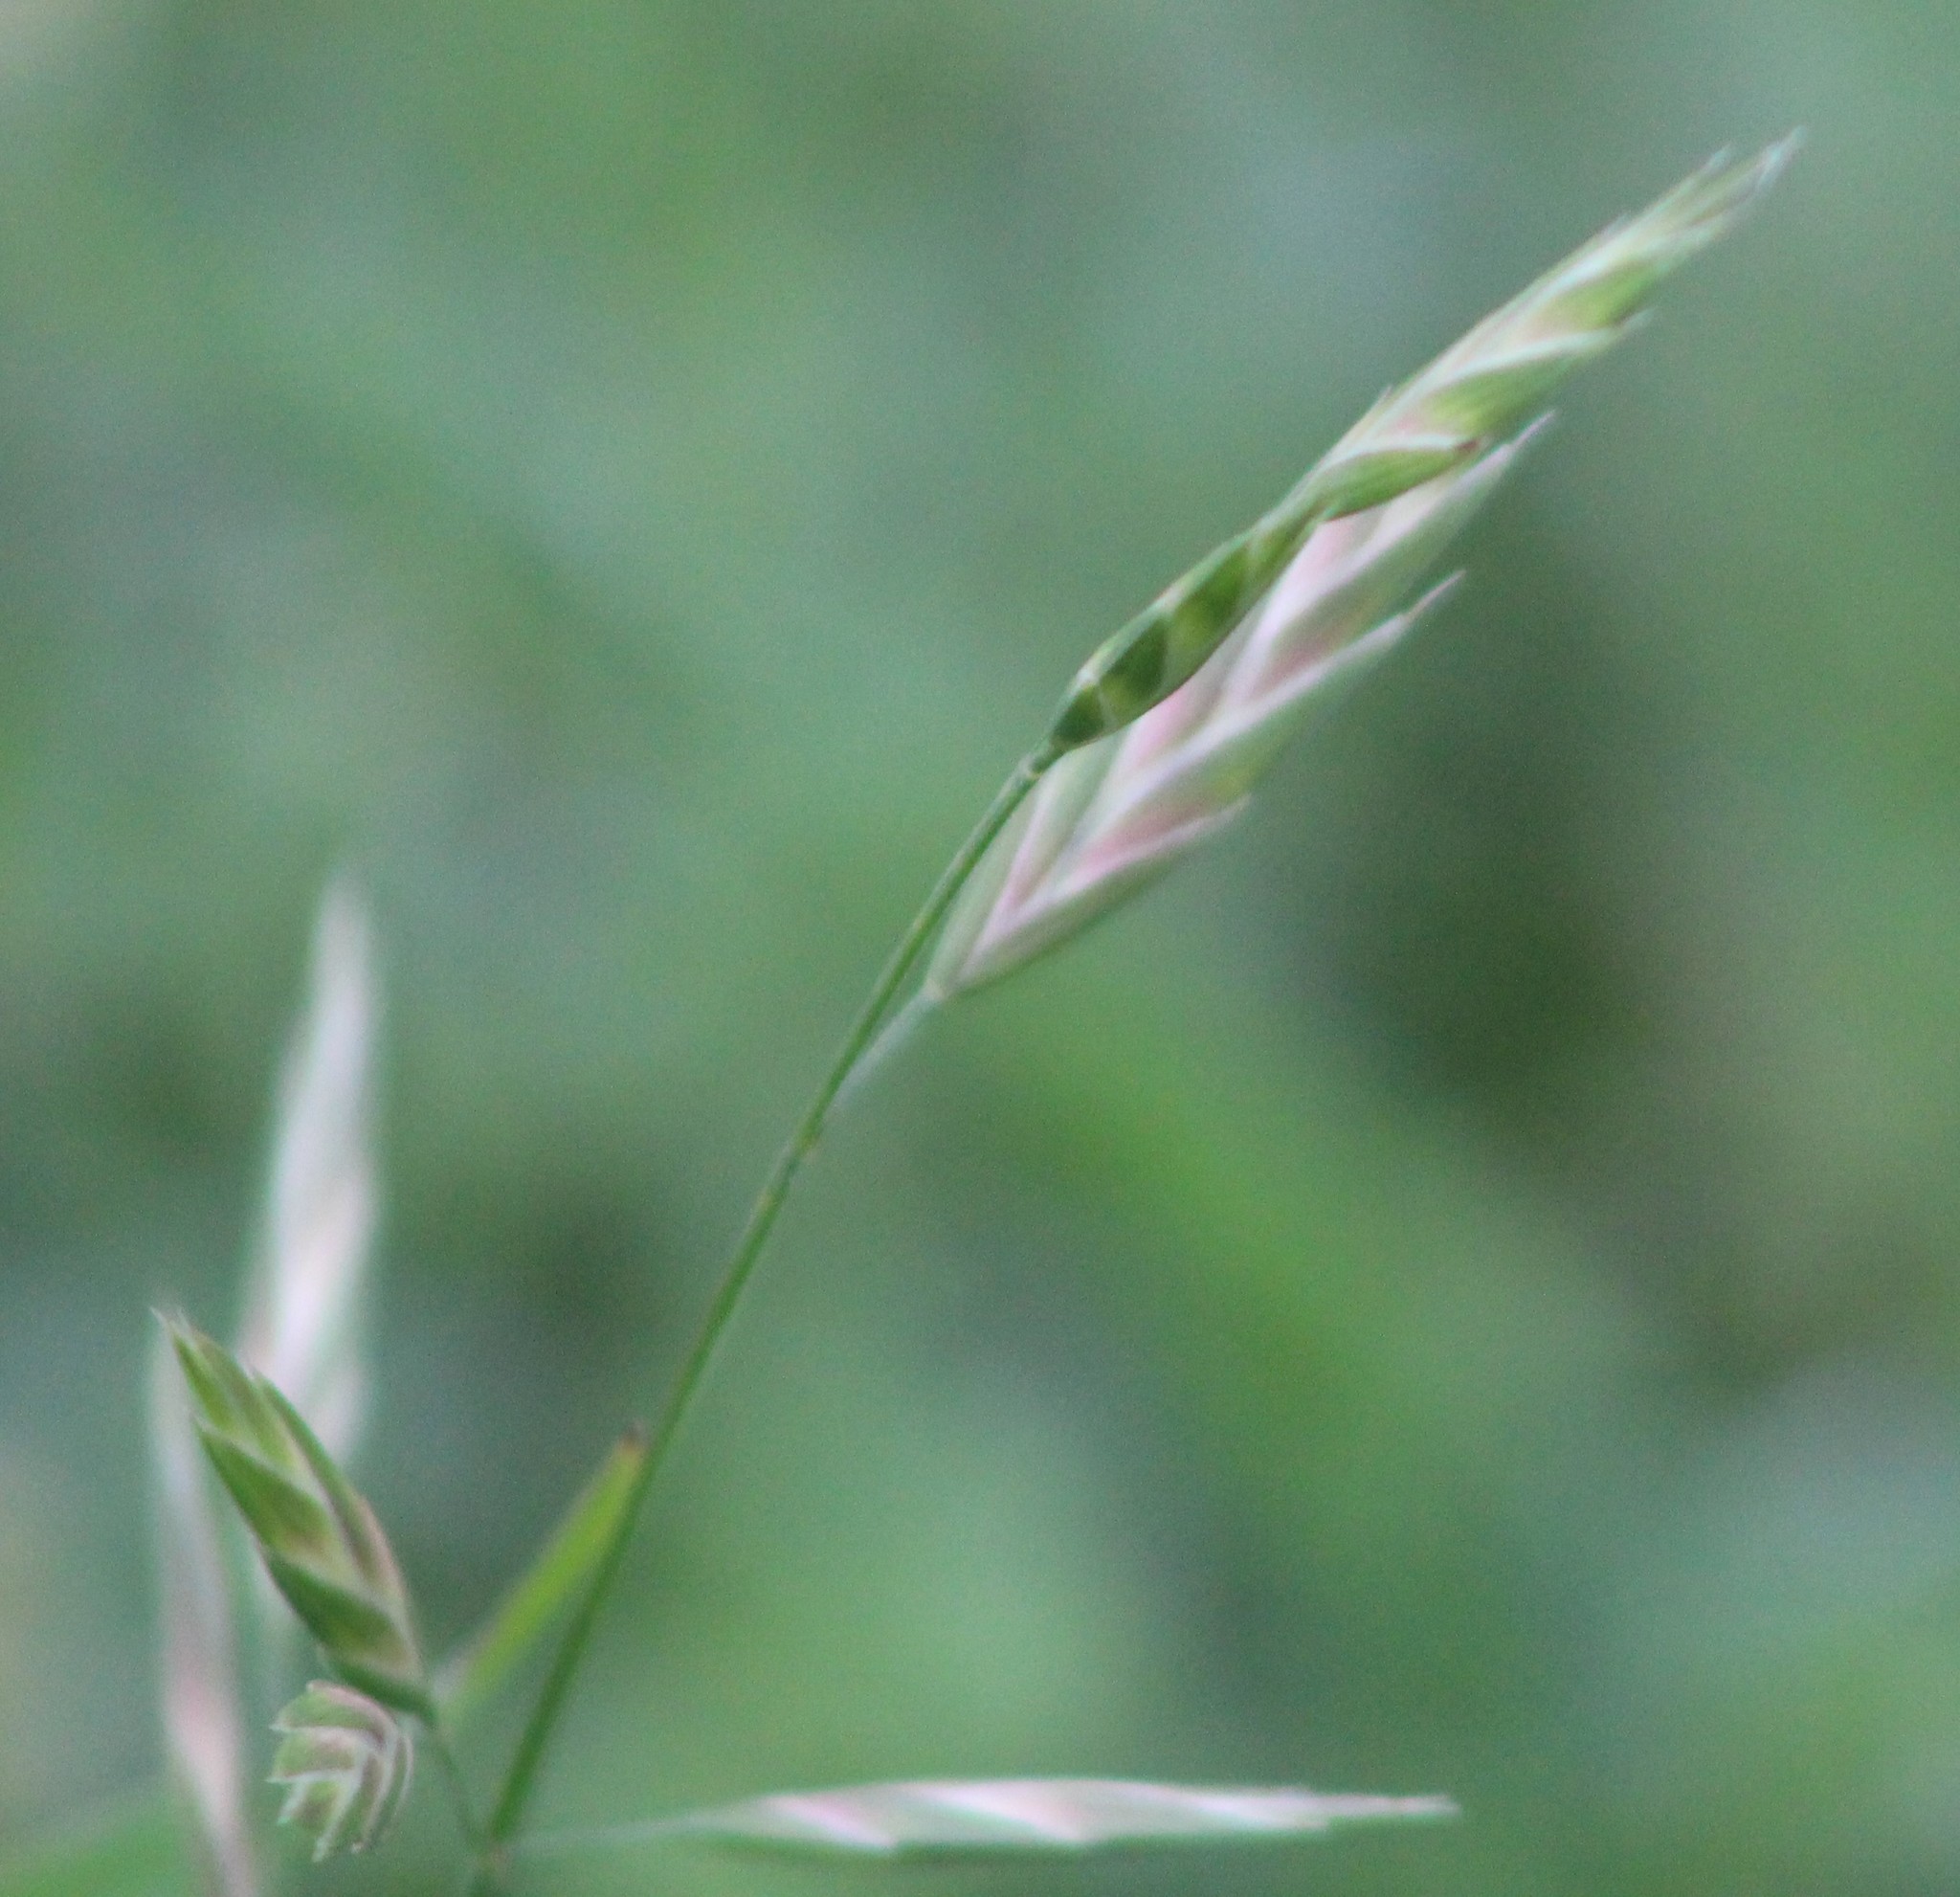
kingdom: Plantae
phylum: Tracheophyta
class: Liliopsida
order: Poales
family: Poaceae
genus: Bromus
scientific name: Bromus catharticus
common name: Rescuegrass
